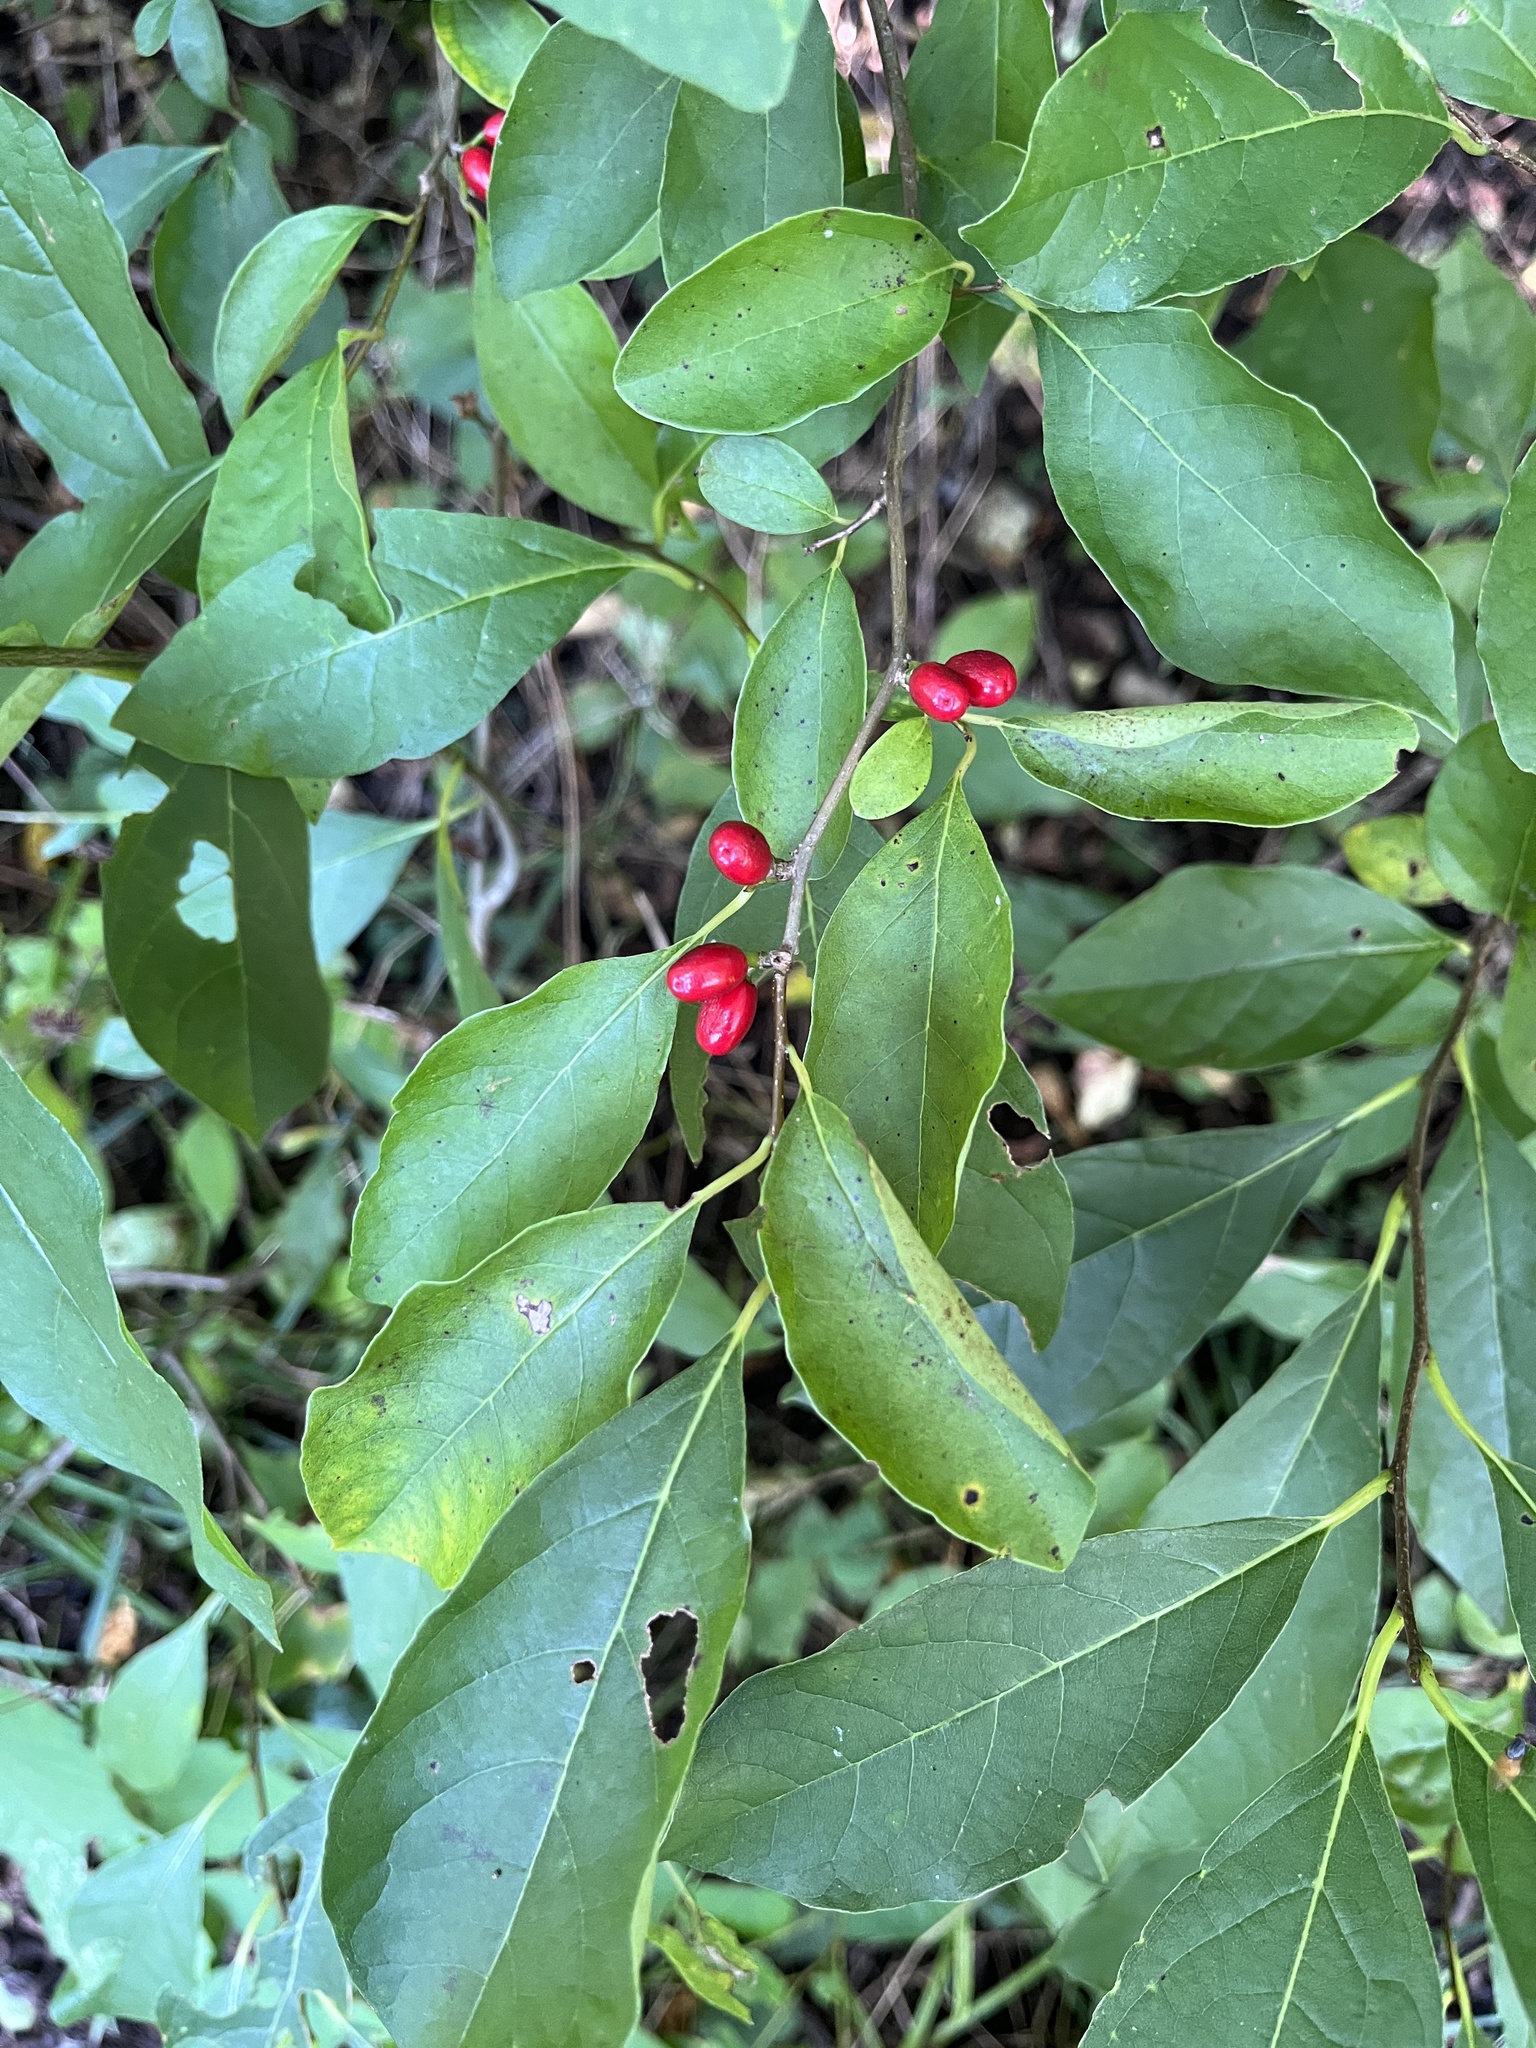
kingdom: Plantae
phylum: Tracheophyta
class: Magnoliopsida
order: Laurales
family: Lauraceae
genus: Lindera
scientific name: Lindera benzoin
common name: Spicebush
